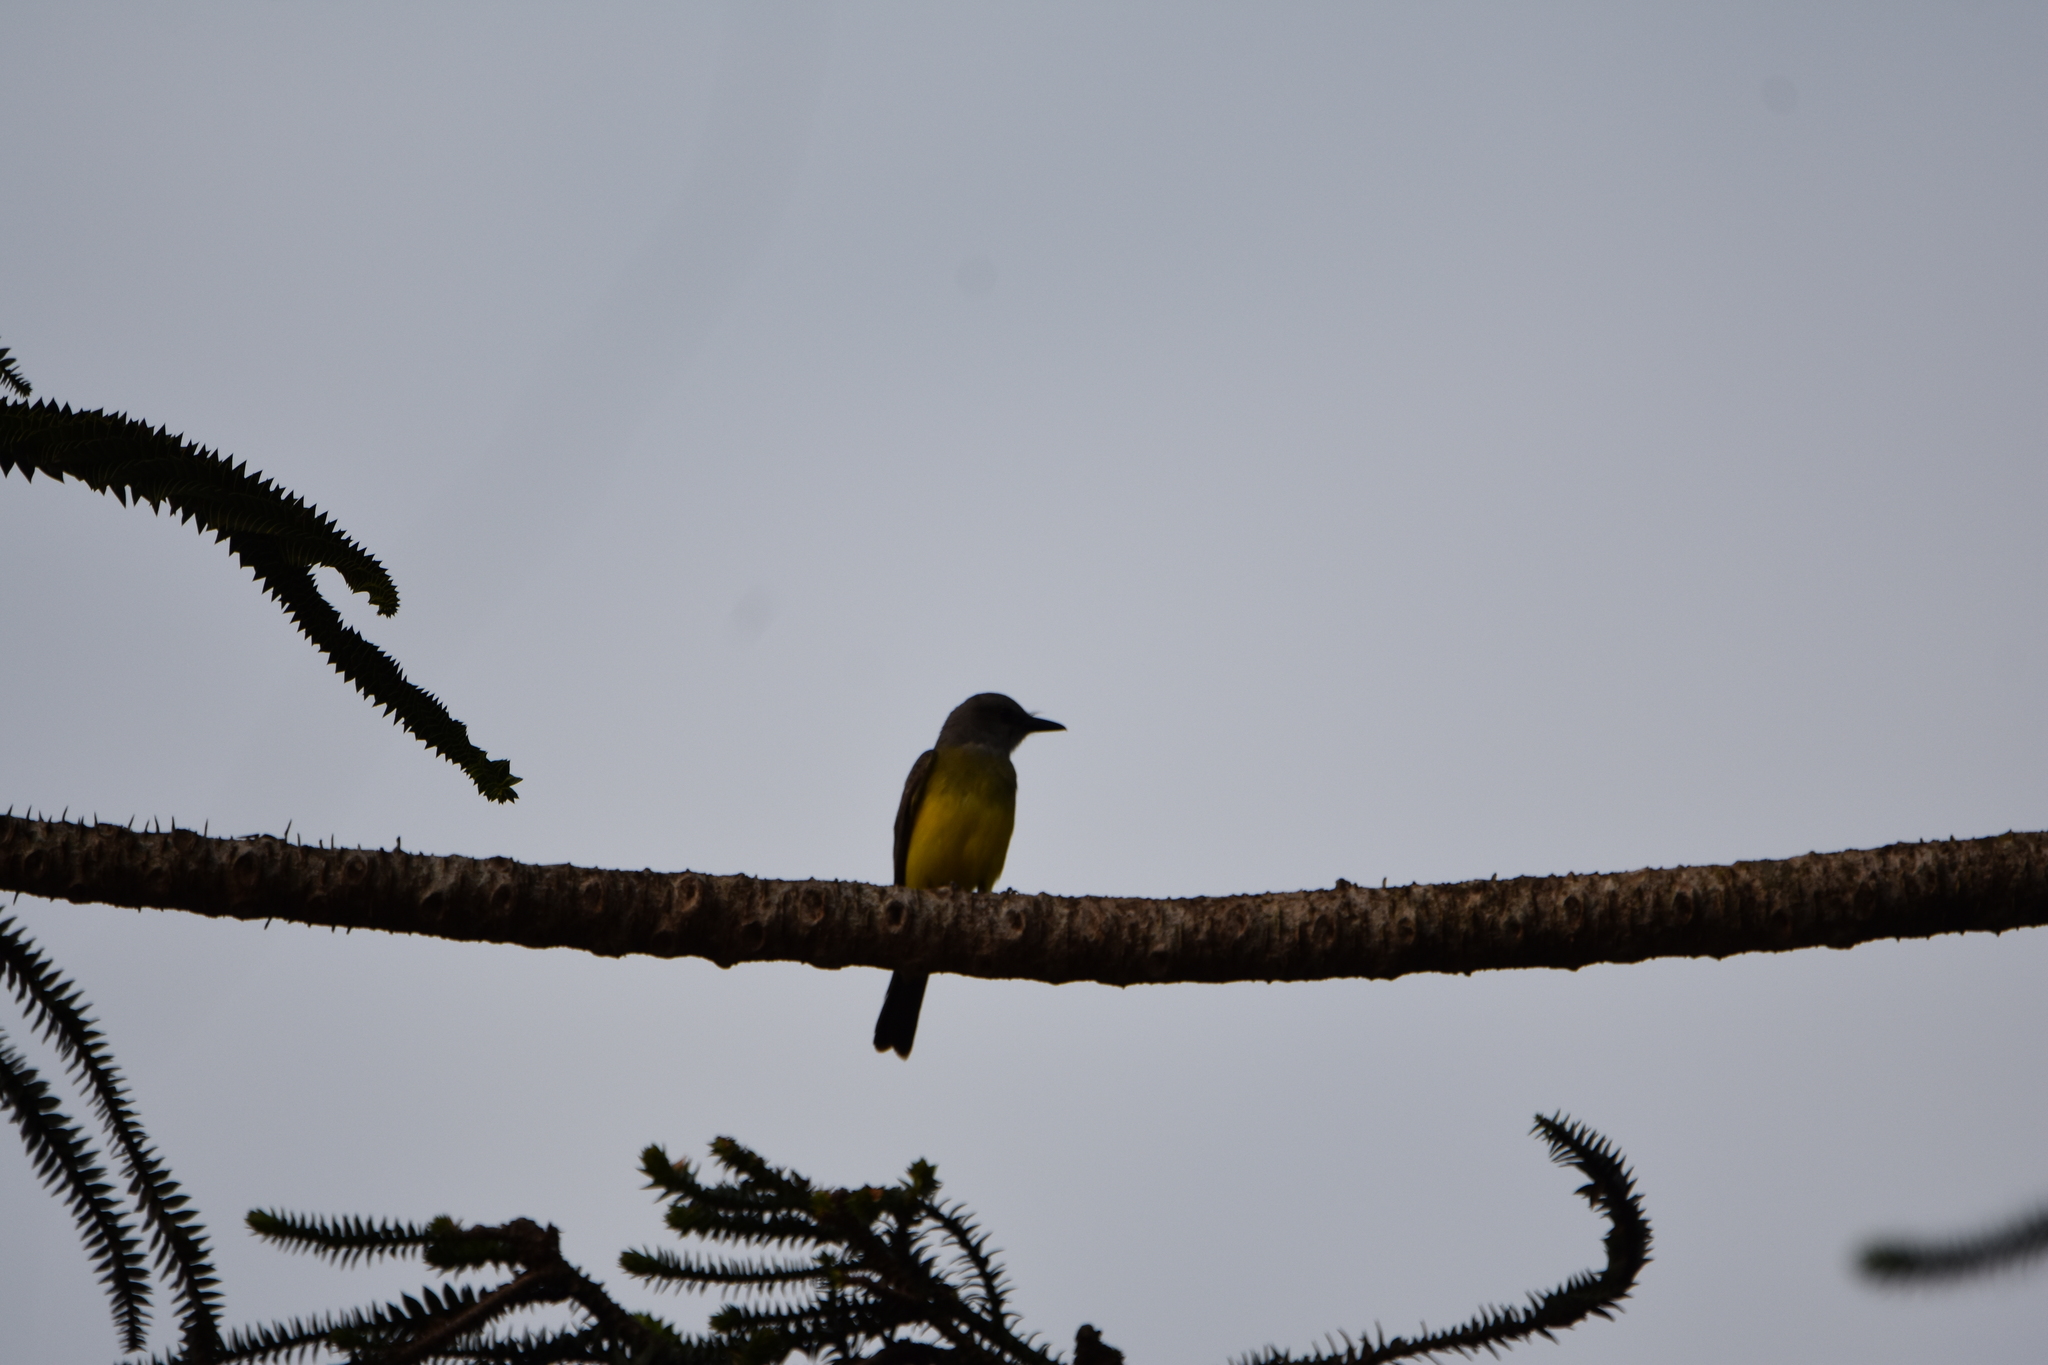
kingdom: Animalia
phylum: Chordata
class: Aves
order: Passeriformes
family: Tyrannidae
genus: Tyrannus
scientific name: Tyrannus melancholicus
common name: Tropical kingbird
